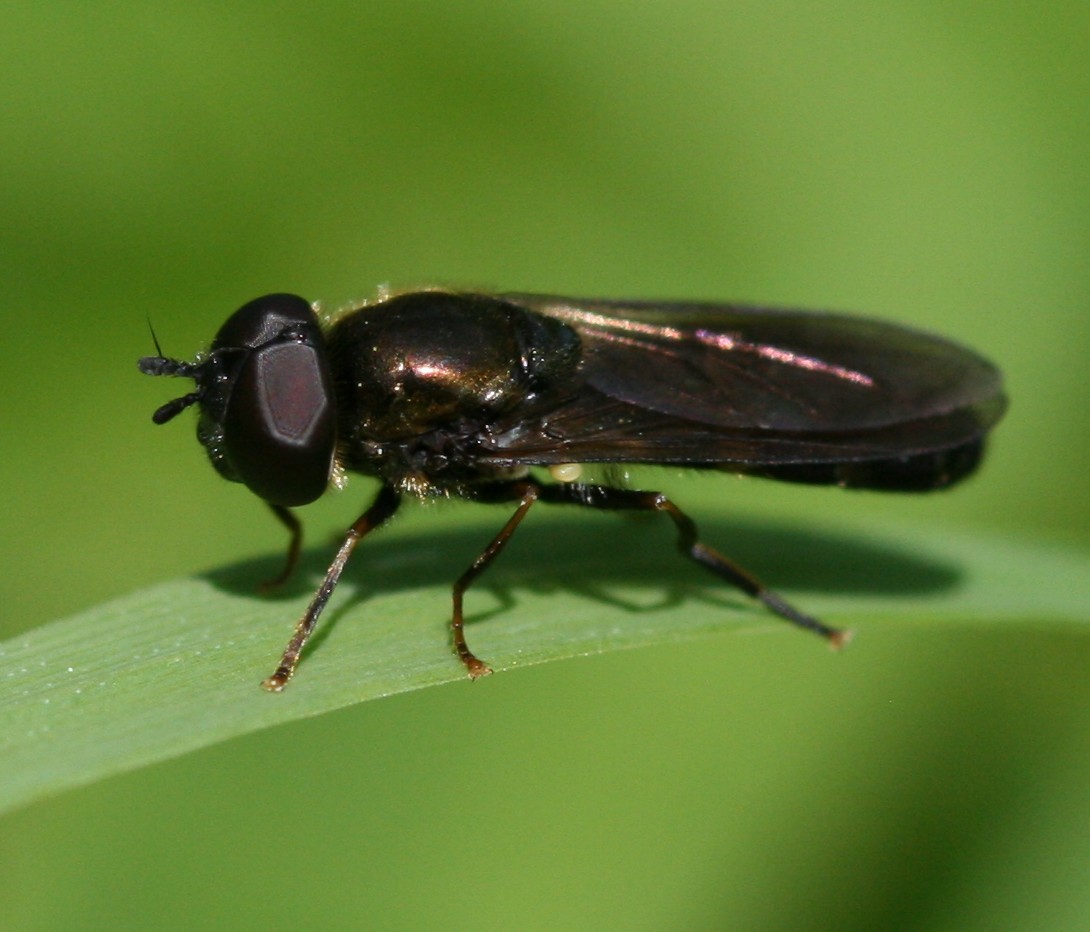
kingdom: Animalia
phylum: Arthropoda
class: Insecta
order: Diptera
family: Syrphidae
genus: Pyrophaena
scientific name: Pyrophaena rosarum
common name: Fourspot sedgesitter
